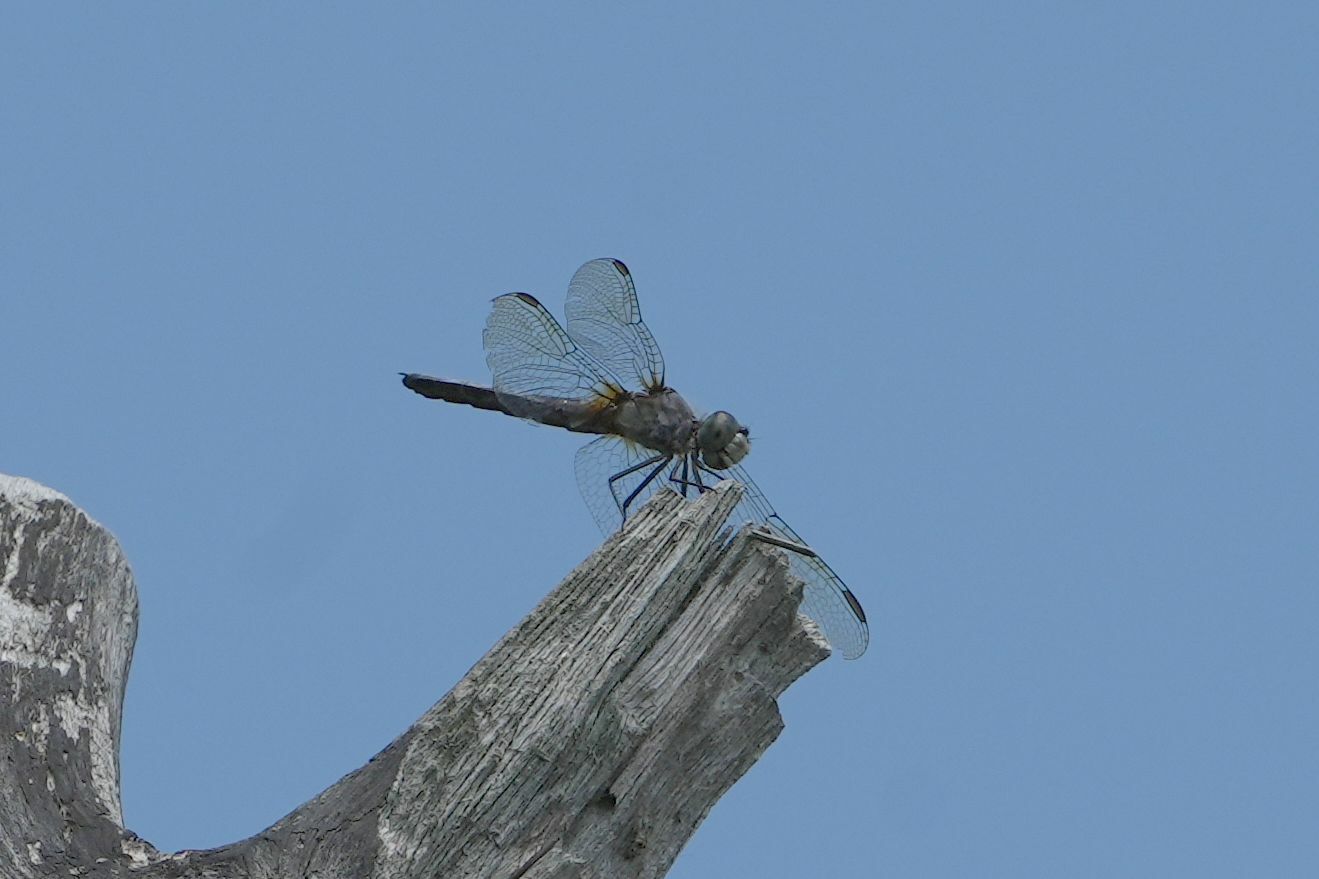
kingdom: Animalia
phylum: Arthropoda
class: Insecta
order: Odonata
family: Libellulidae
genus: Pachydiplax
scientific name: Pachydiplax longipennis
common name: Blue dasher
